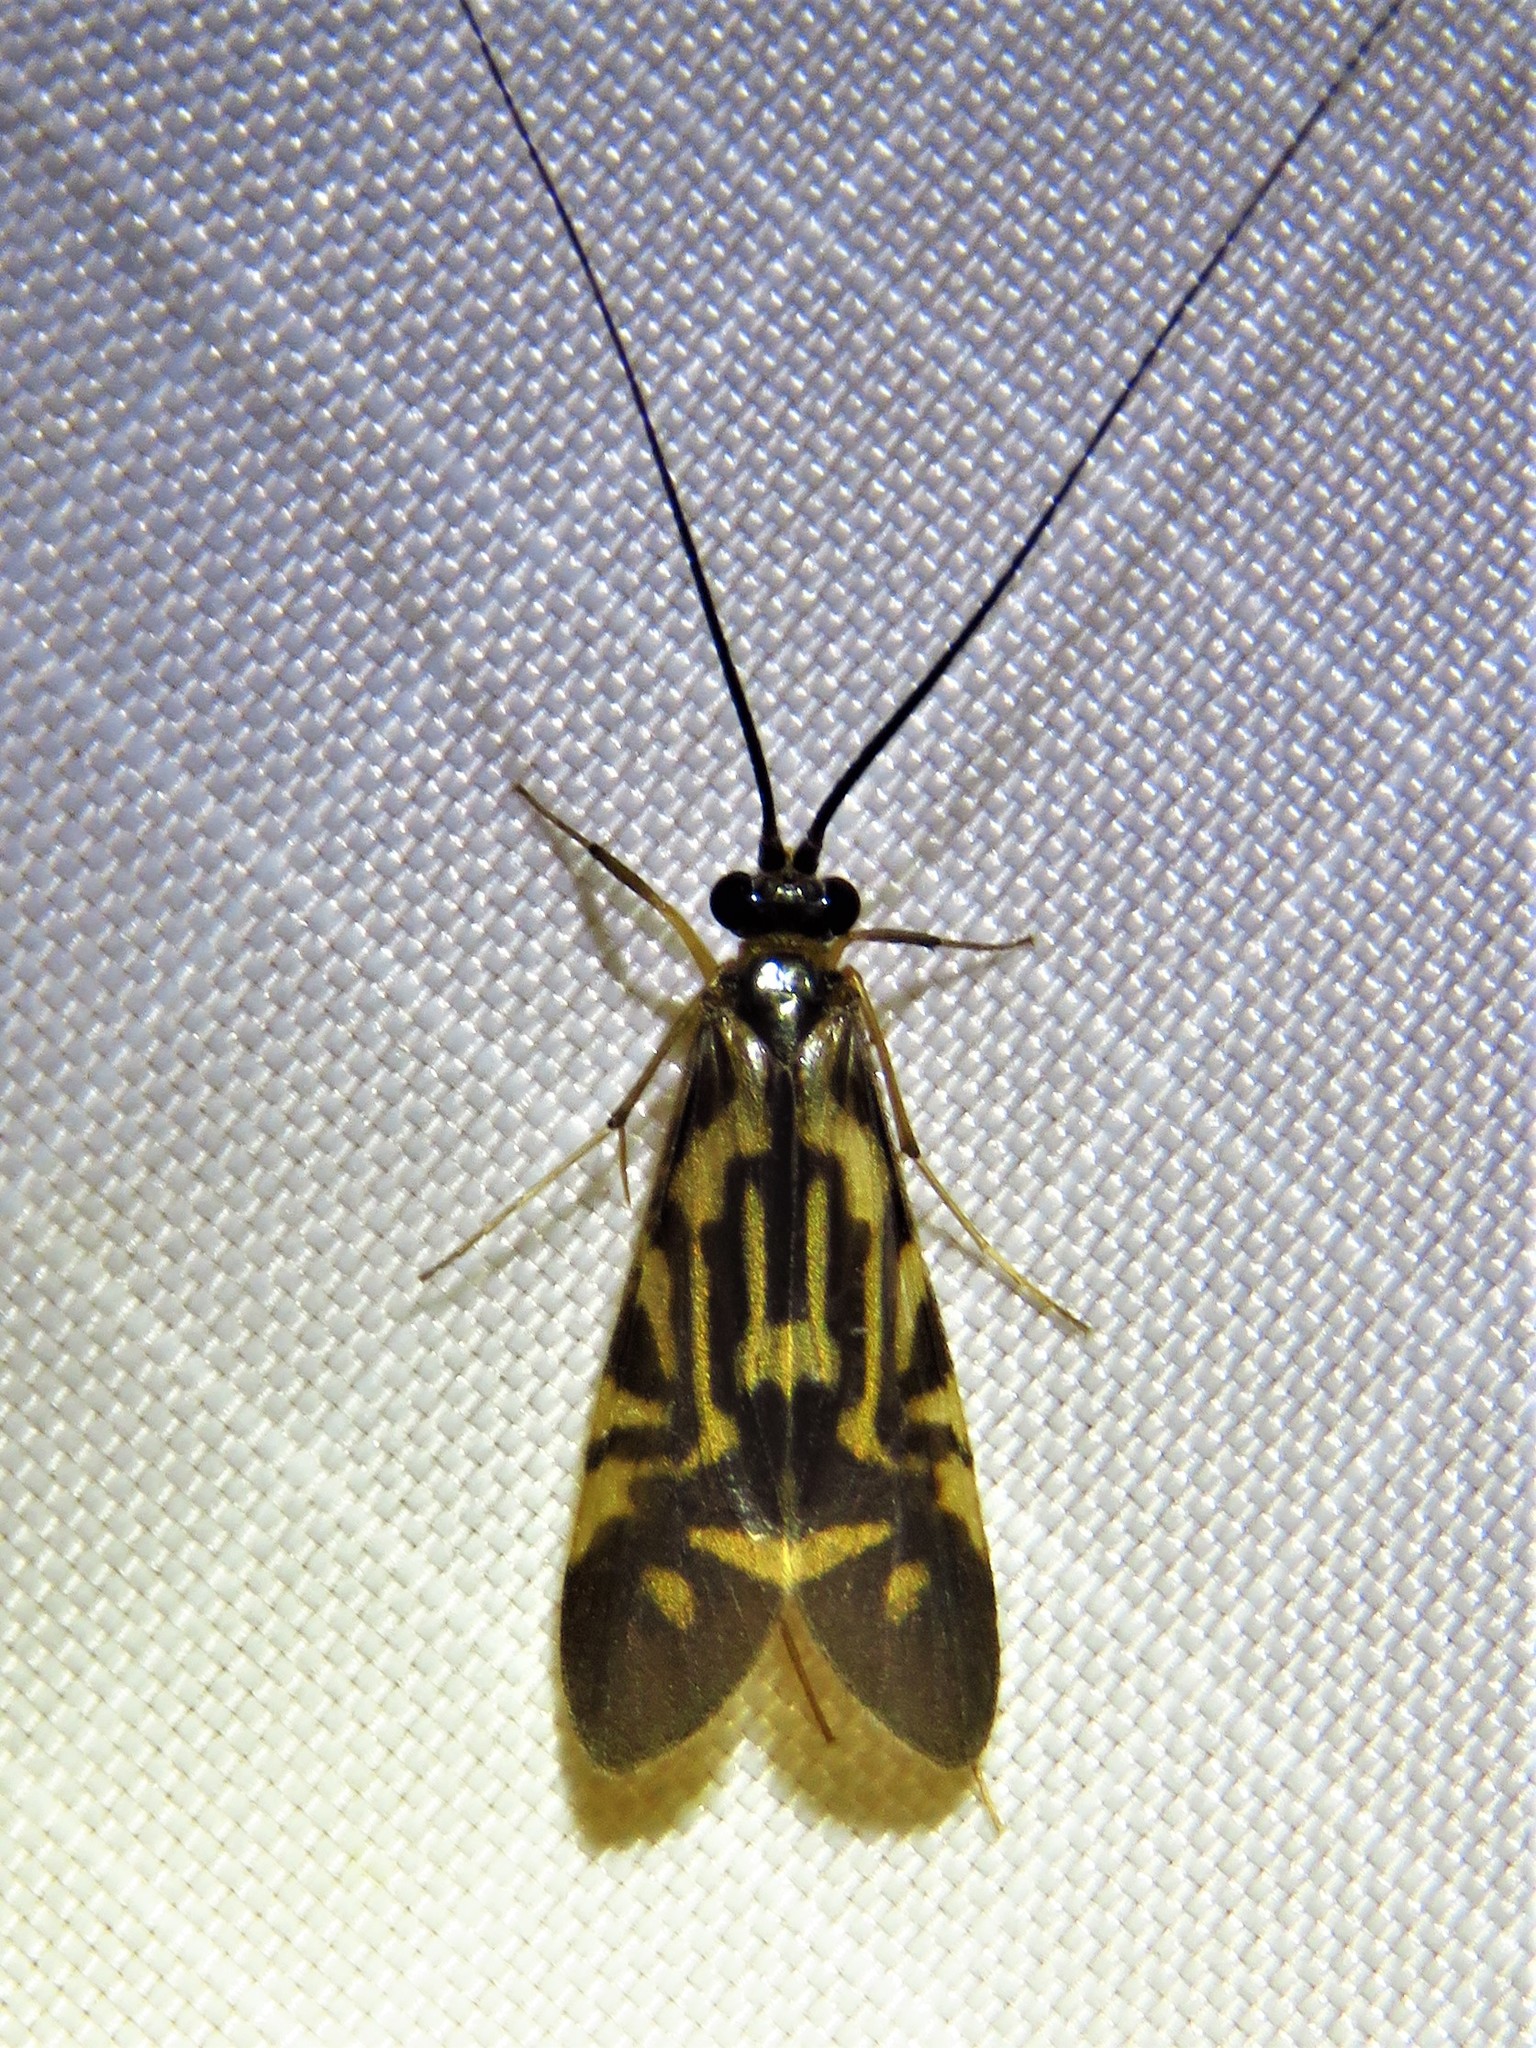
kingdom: Animalia
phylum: Arthropoda
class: Insecta
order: Trichoptera
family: Hydropsychidae
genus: Macrostemum
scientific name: Macrostemum carolina
